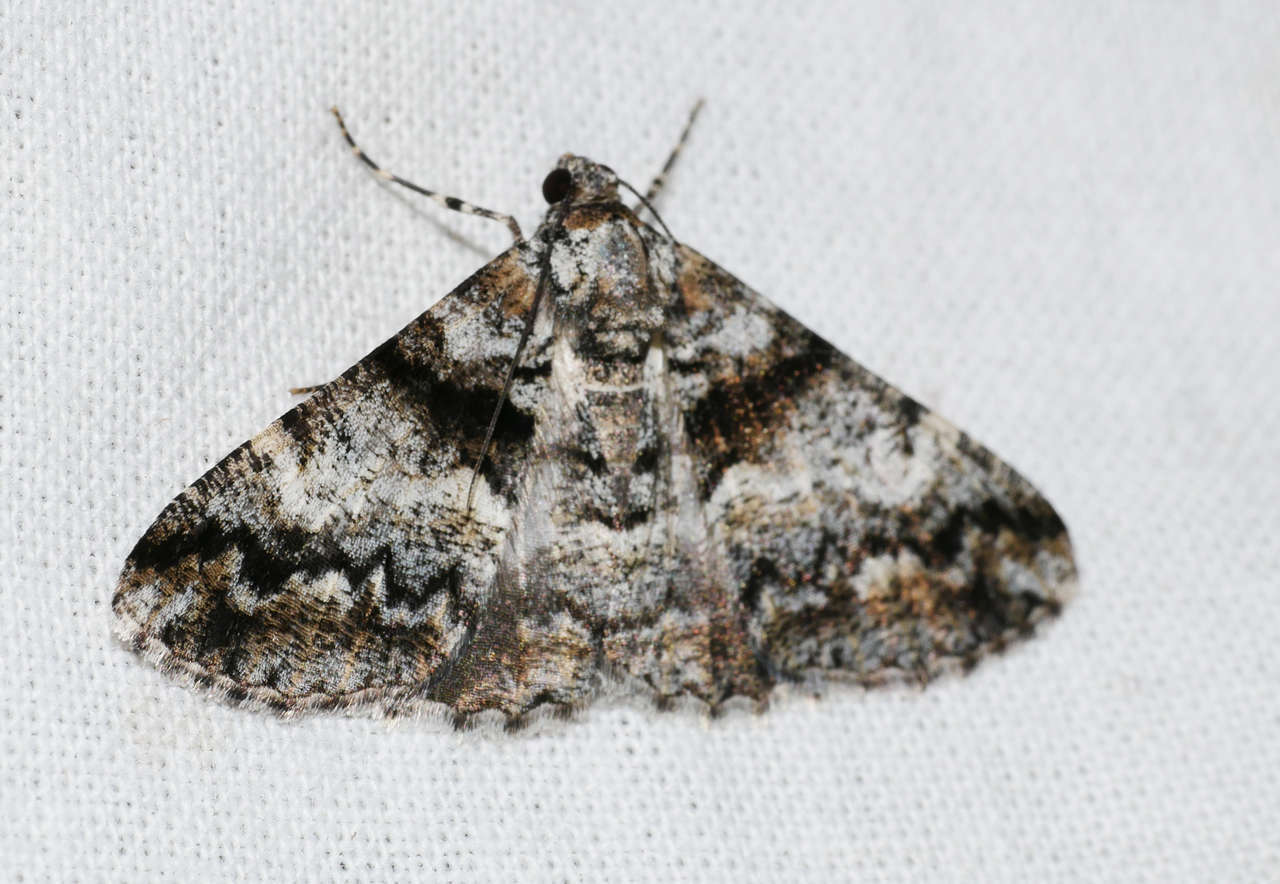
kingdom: Animalia
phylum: Arthropoda
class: Insecta
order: Lepidoptera
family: Geometridae
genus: Gastrinodes
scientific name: Gastrinodes argoplaca
